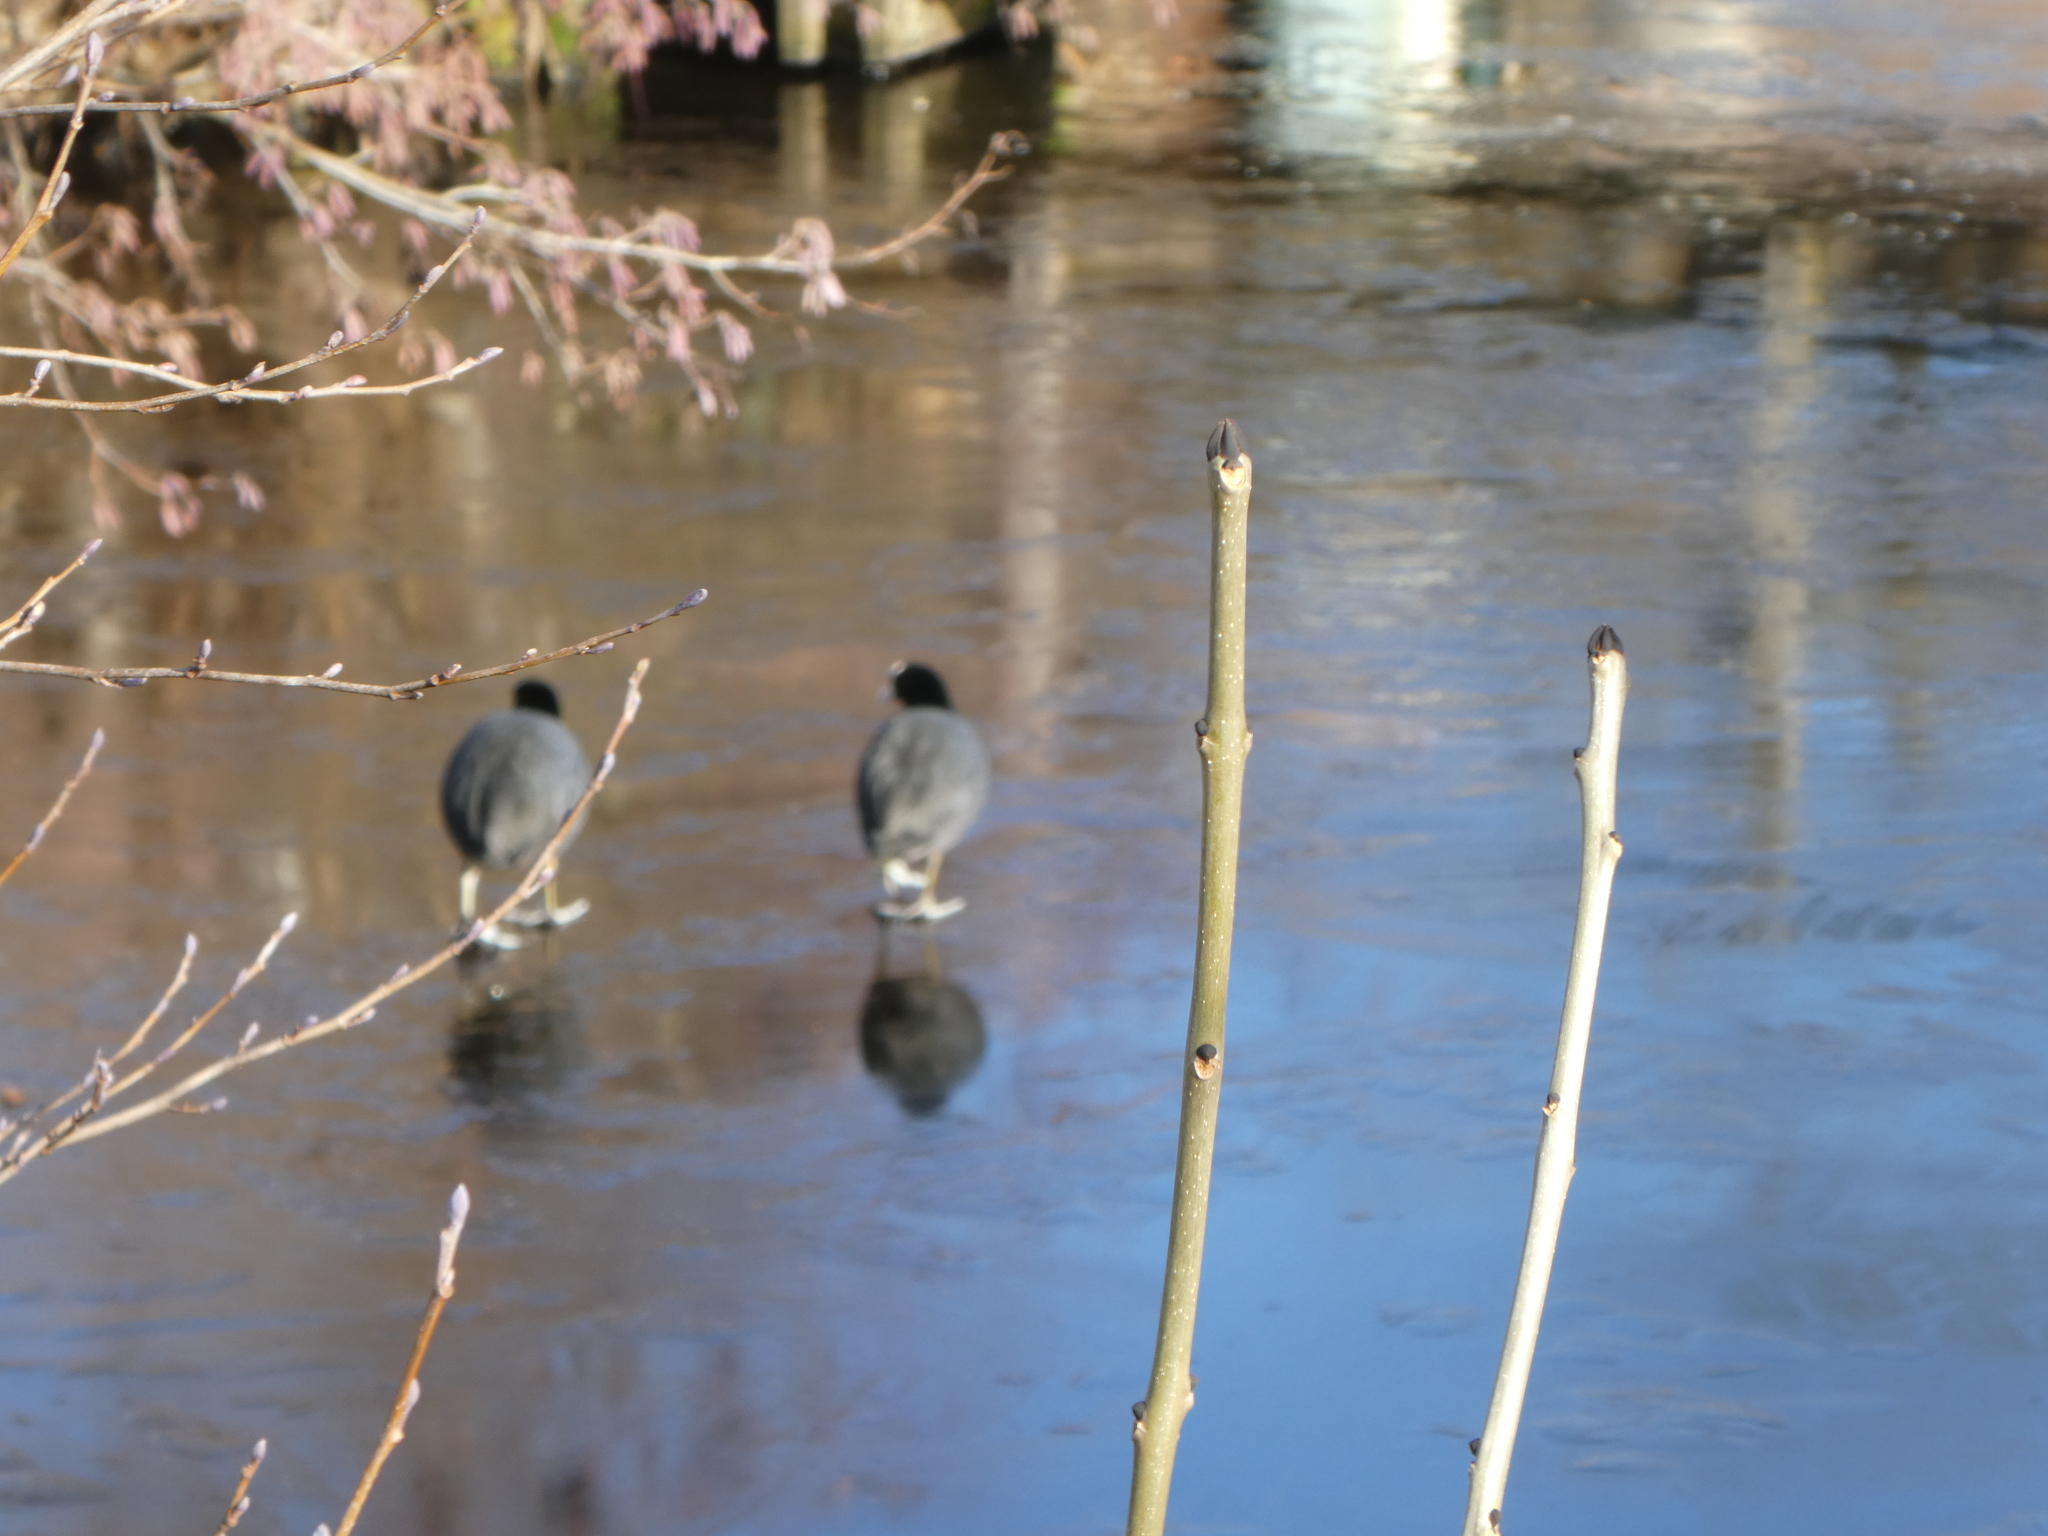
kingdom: Animalia
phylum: Chordata
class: Aves
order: Gruiformes
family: Rallidae
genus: Fulica
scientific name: Fulica atra
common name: Eurasian coot
